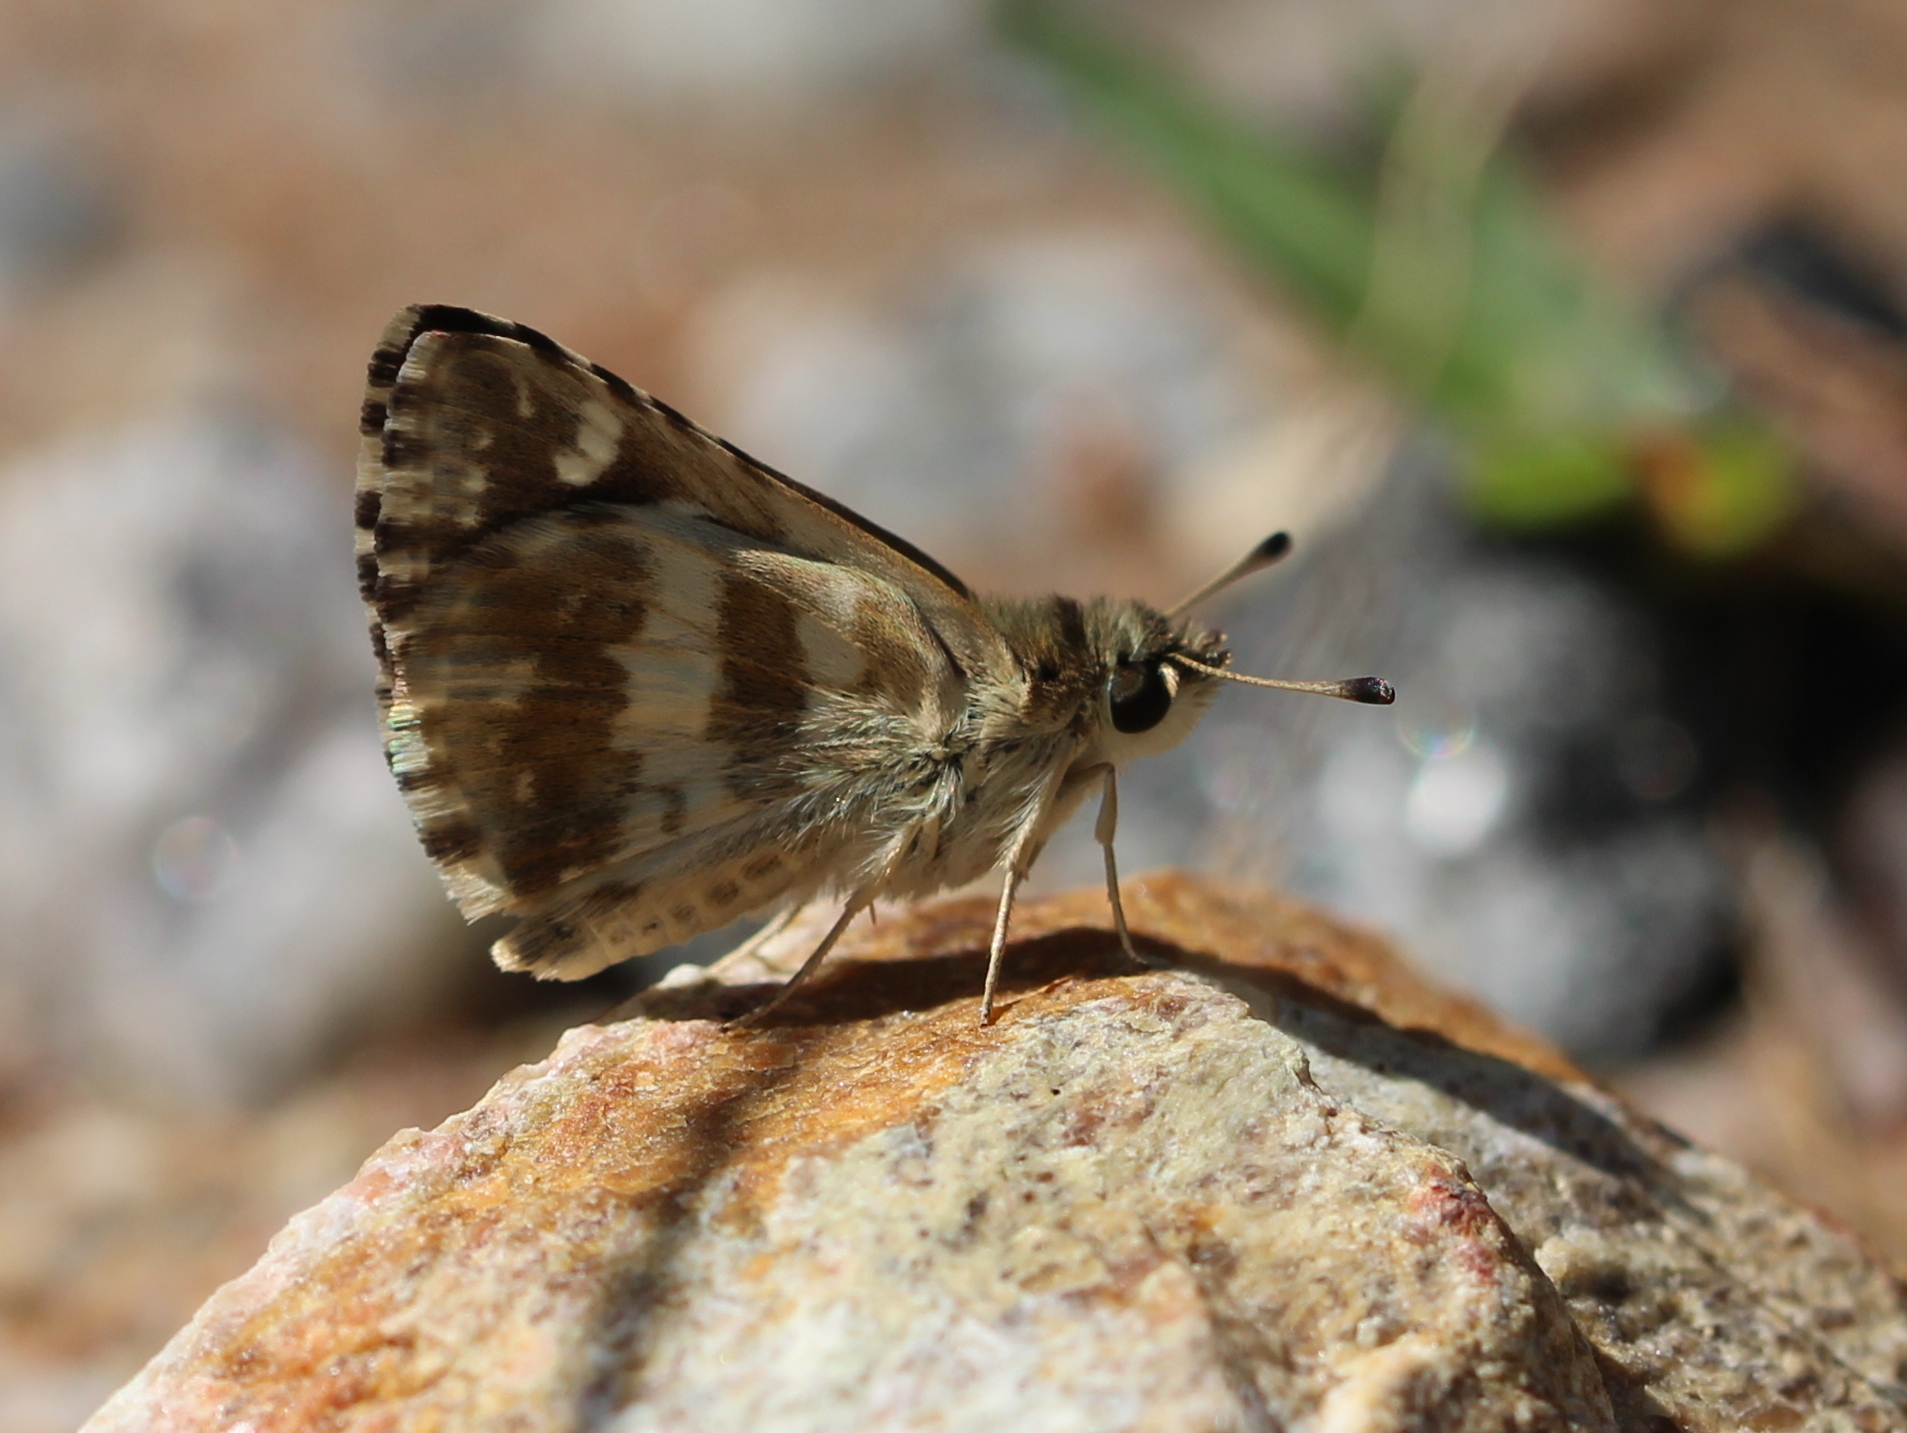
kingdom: Animalia
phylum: Arthropoda
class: Insecta
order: Lepidoptera
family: Hesperiidae
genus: Spialia
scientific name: Spialia galba
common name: Indian skipper
